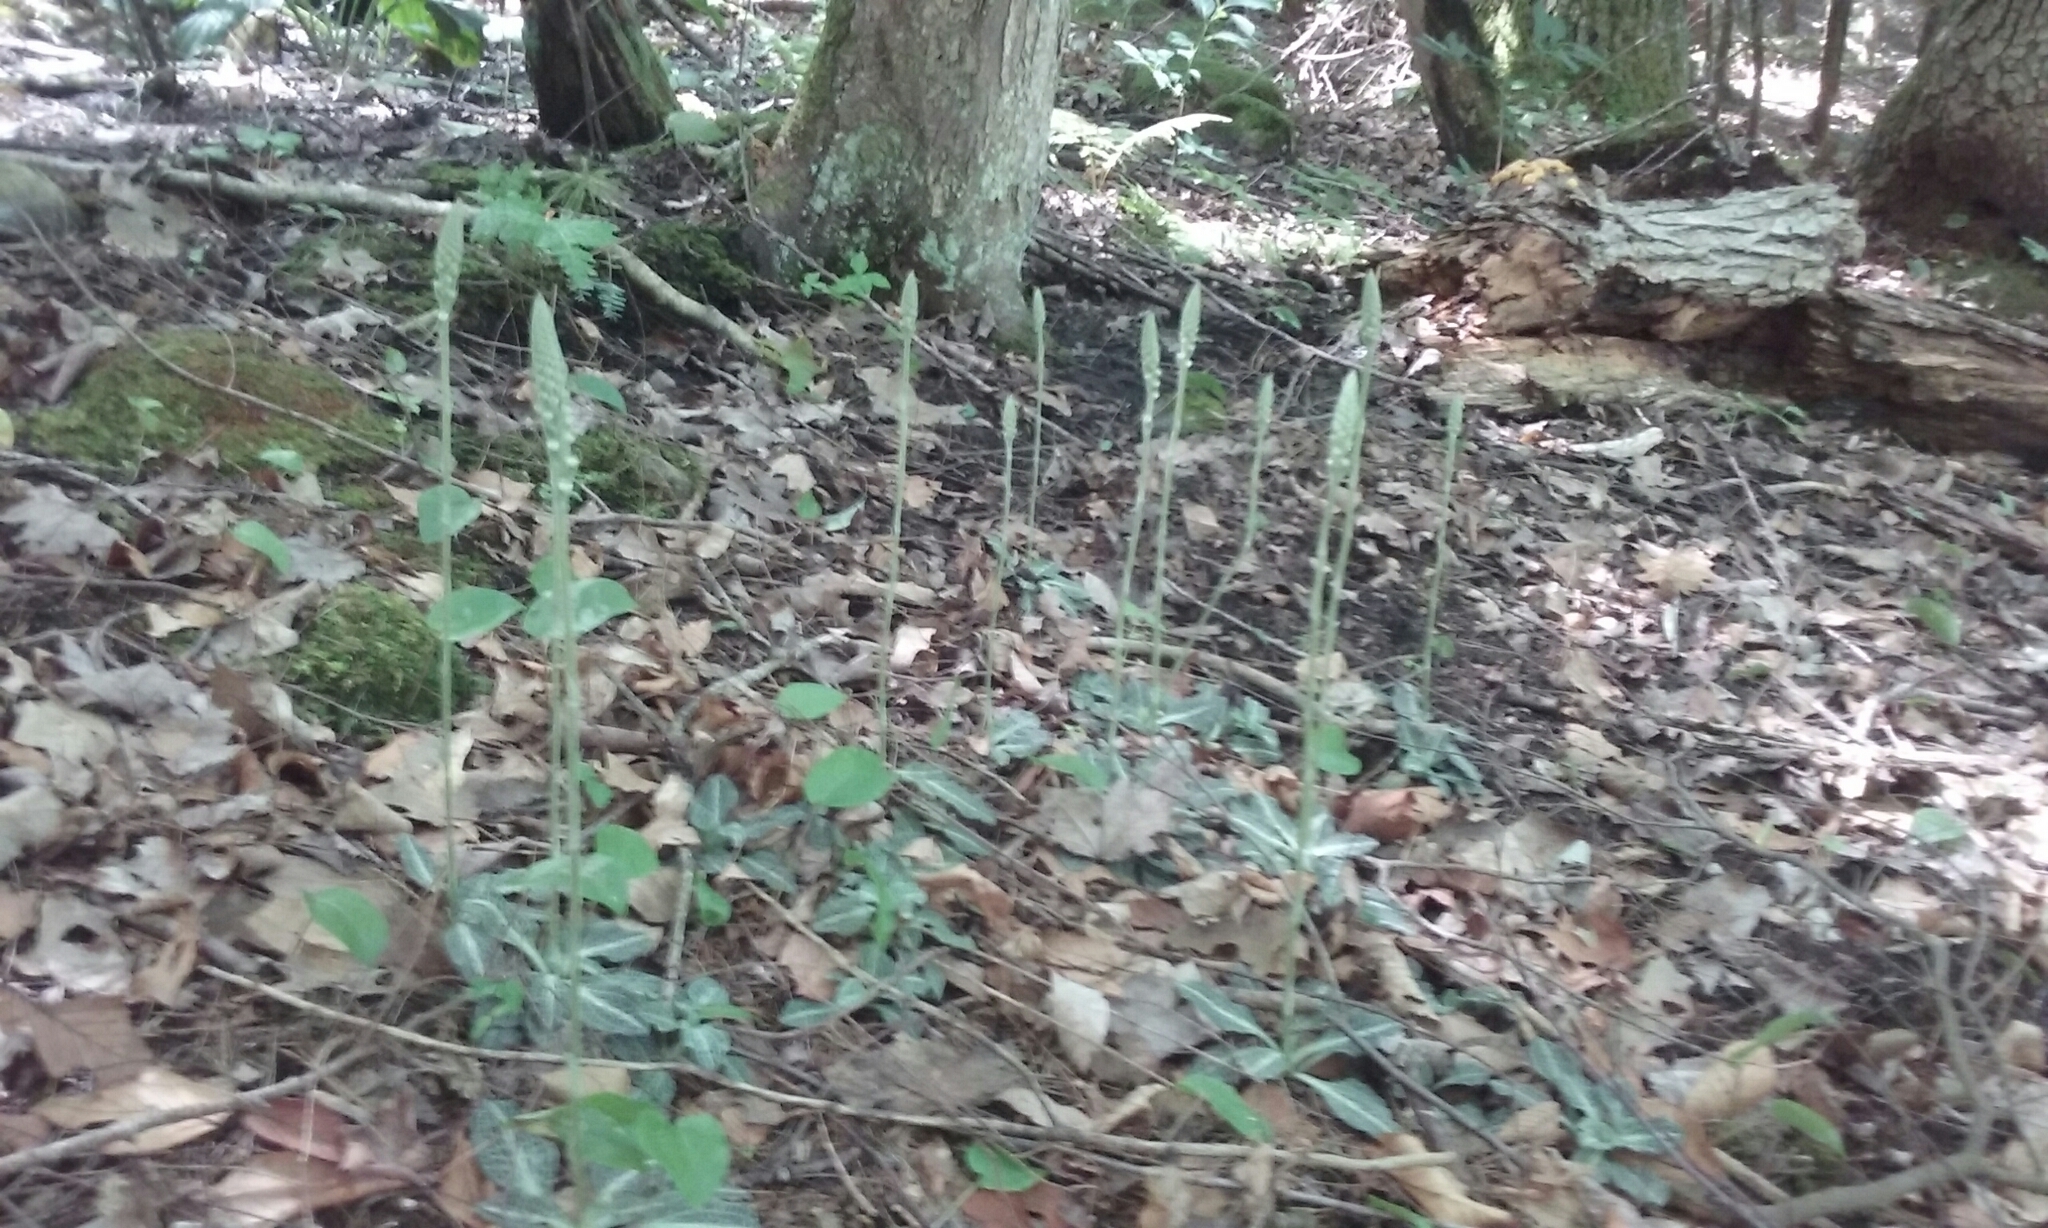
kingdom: Plantae
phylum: Tracheophyta
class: Liliopsida
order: Asparagales
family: Orchidaceae
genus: Goodyera
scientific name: Goodyera pubescens
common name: Downy rattlesnake-plantain
